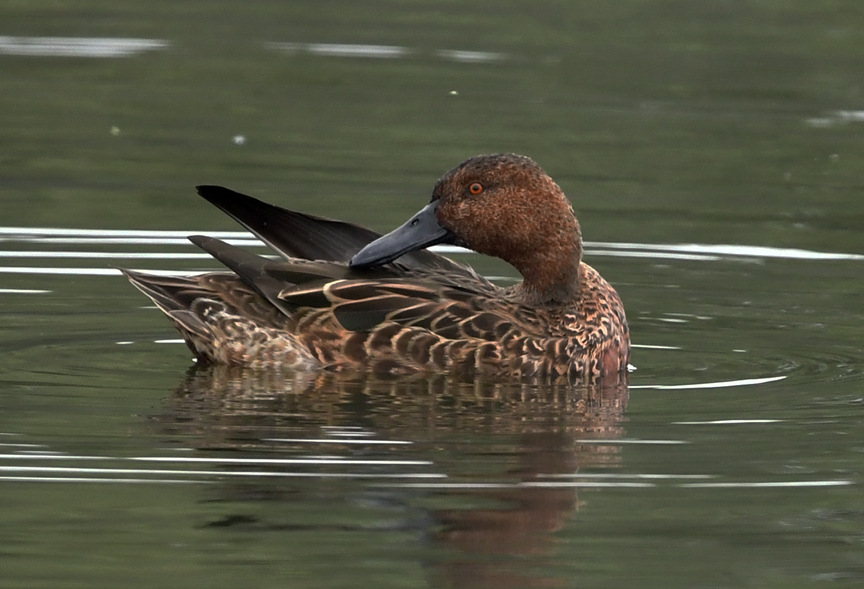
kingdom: Animalia
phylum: Chordata
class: Aves
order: Anseriformes
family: Anatidae
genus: Spatula
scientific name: Spatula cyanoptera
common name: Cinnamon teal
